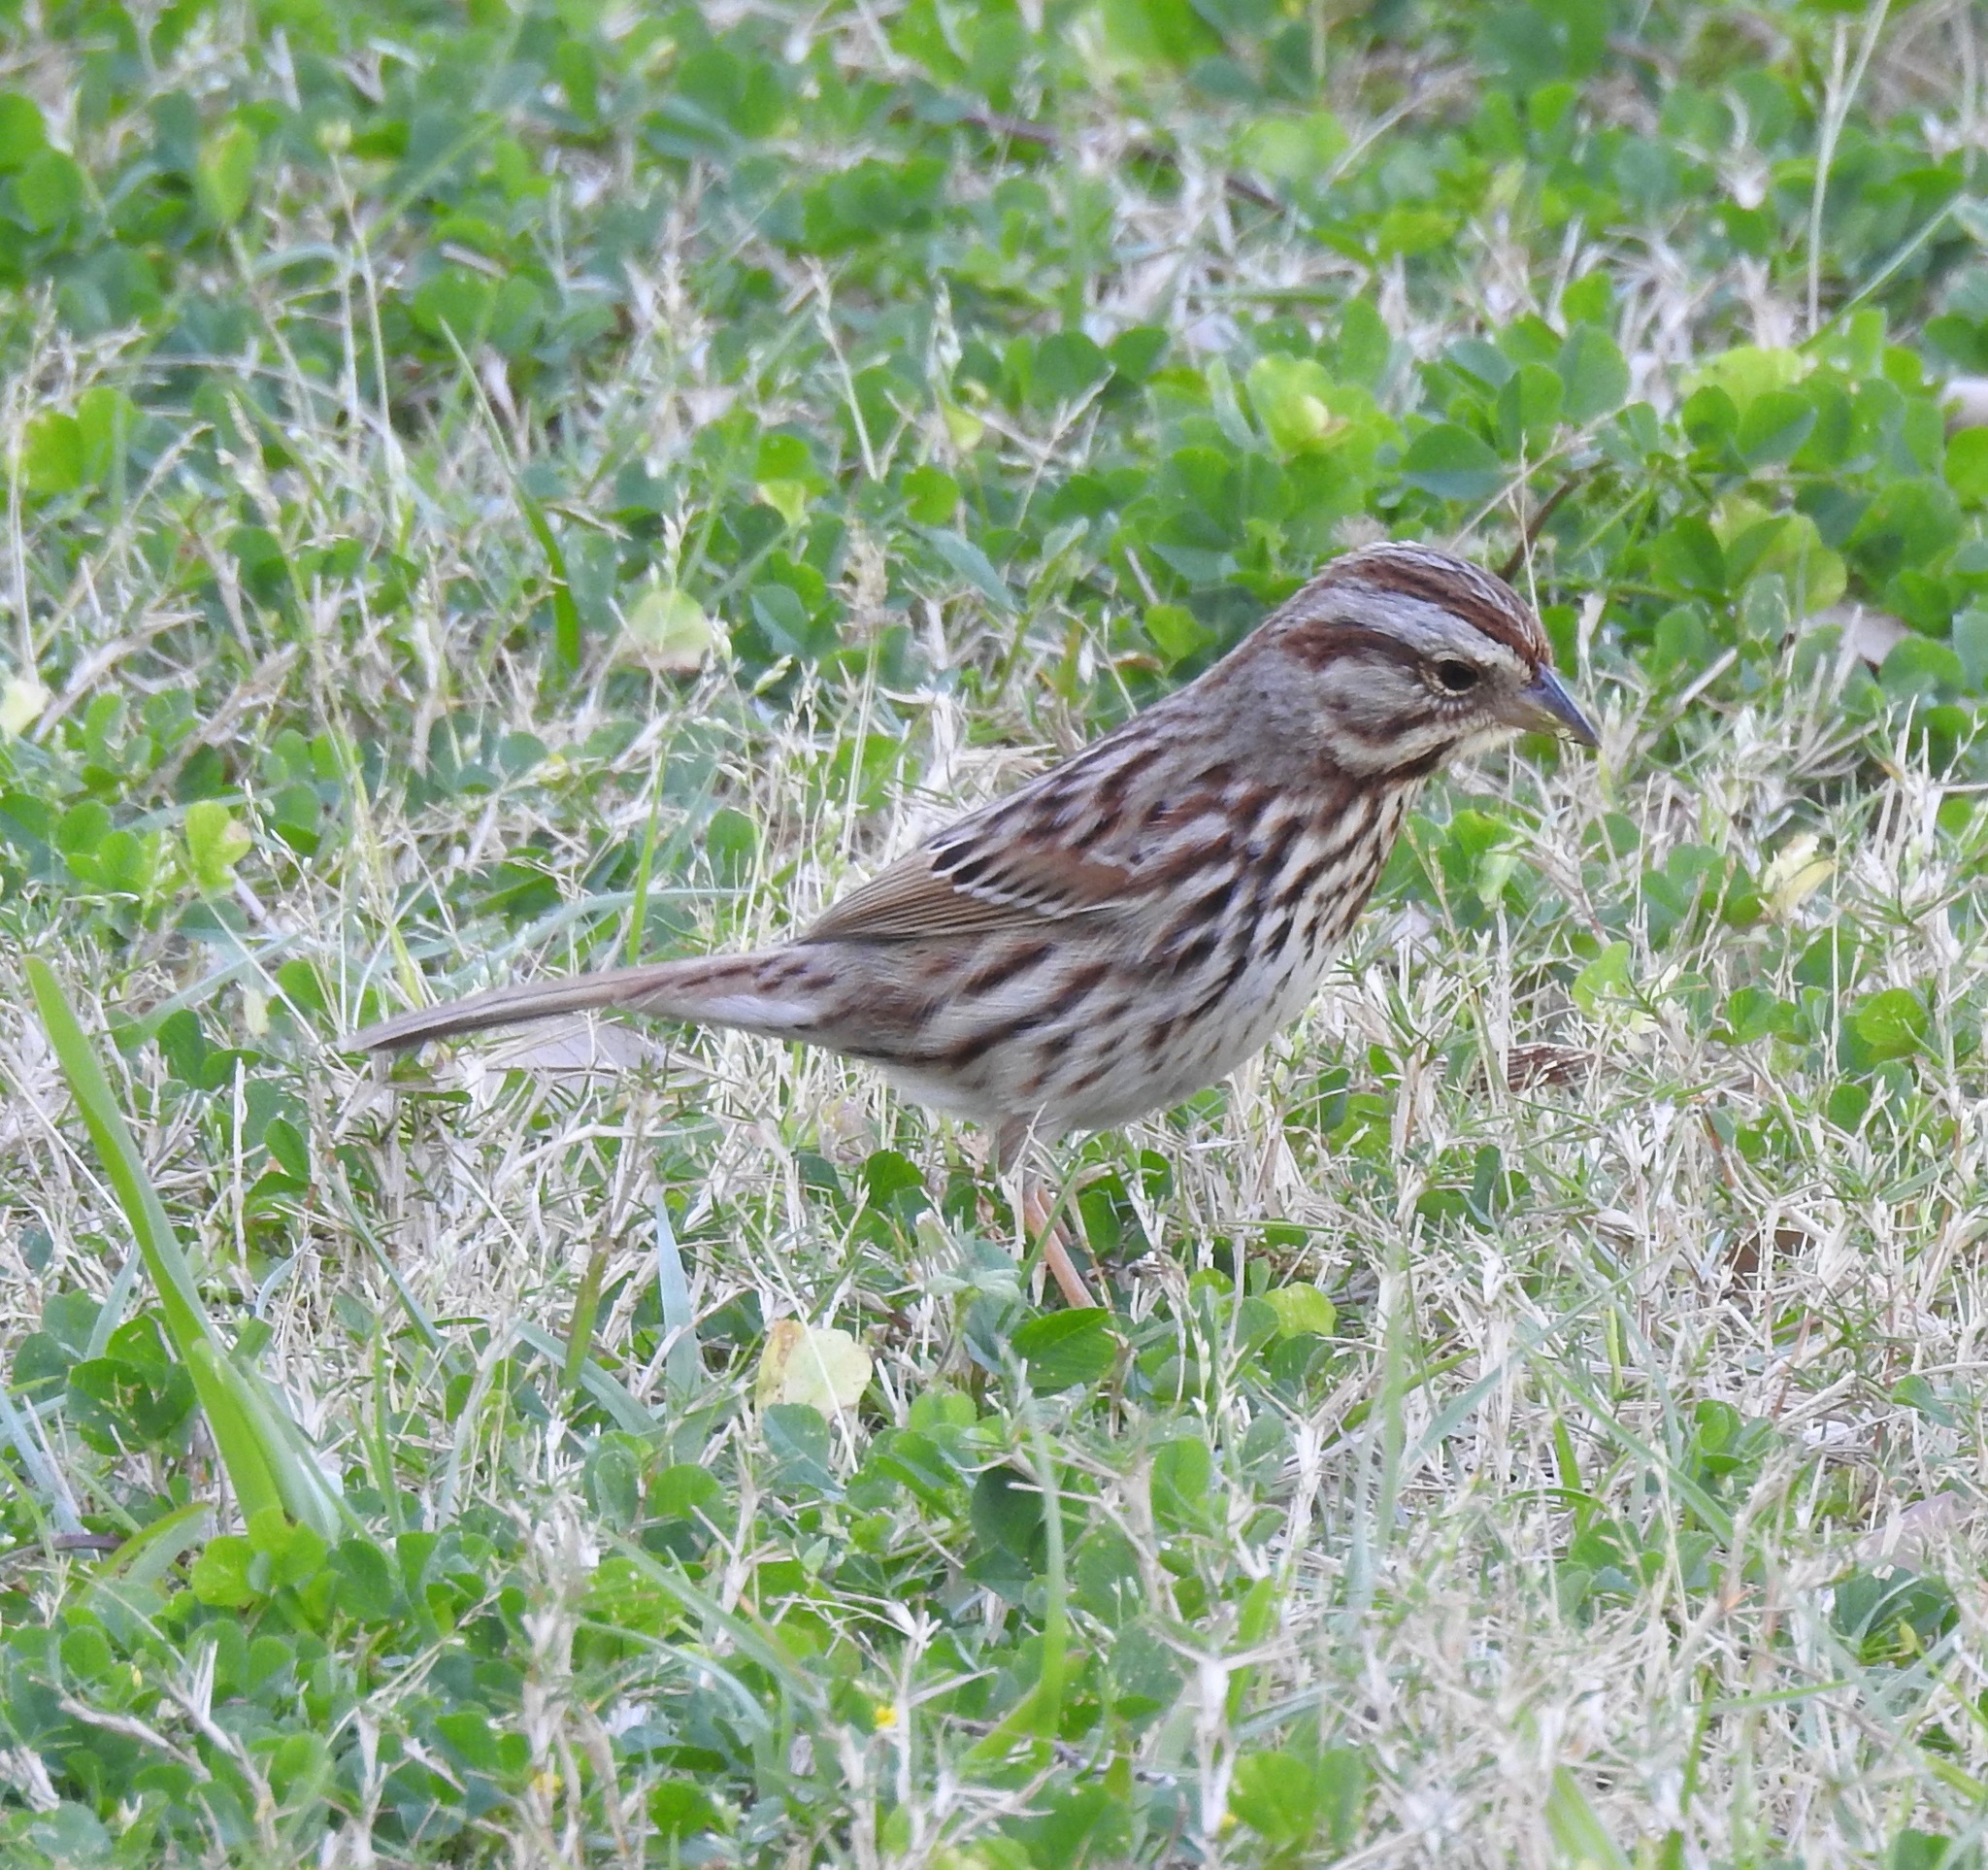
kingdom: Animalia
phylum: Chordata
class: Aves
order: Passeriformes
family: Passerellidae
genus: Melospiza
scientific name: Melospiza melodia
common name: Song sparrow
